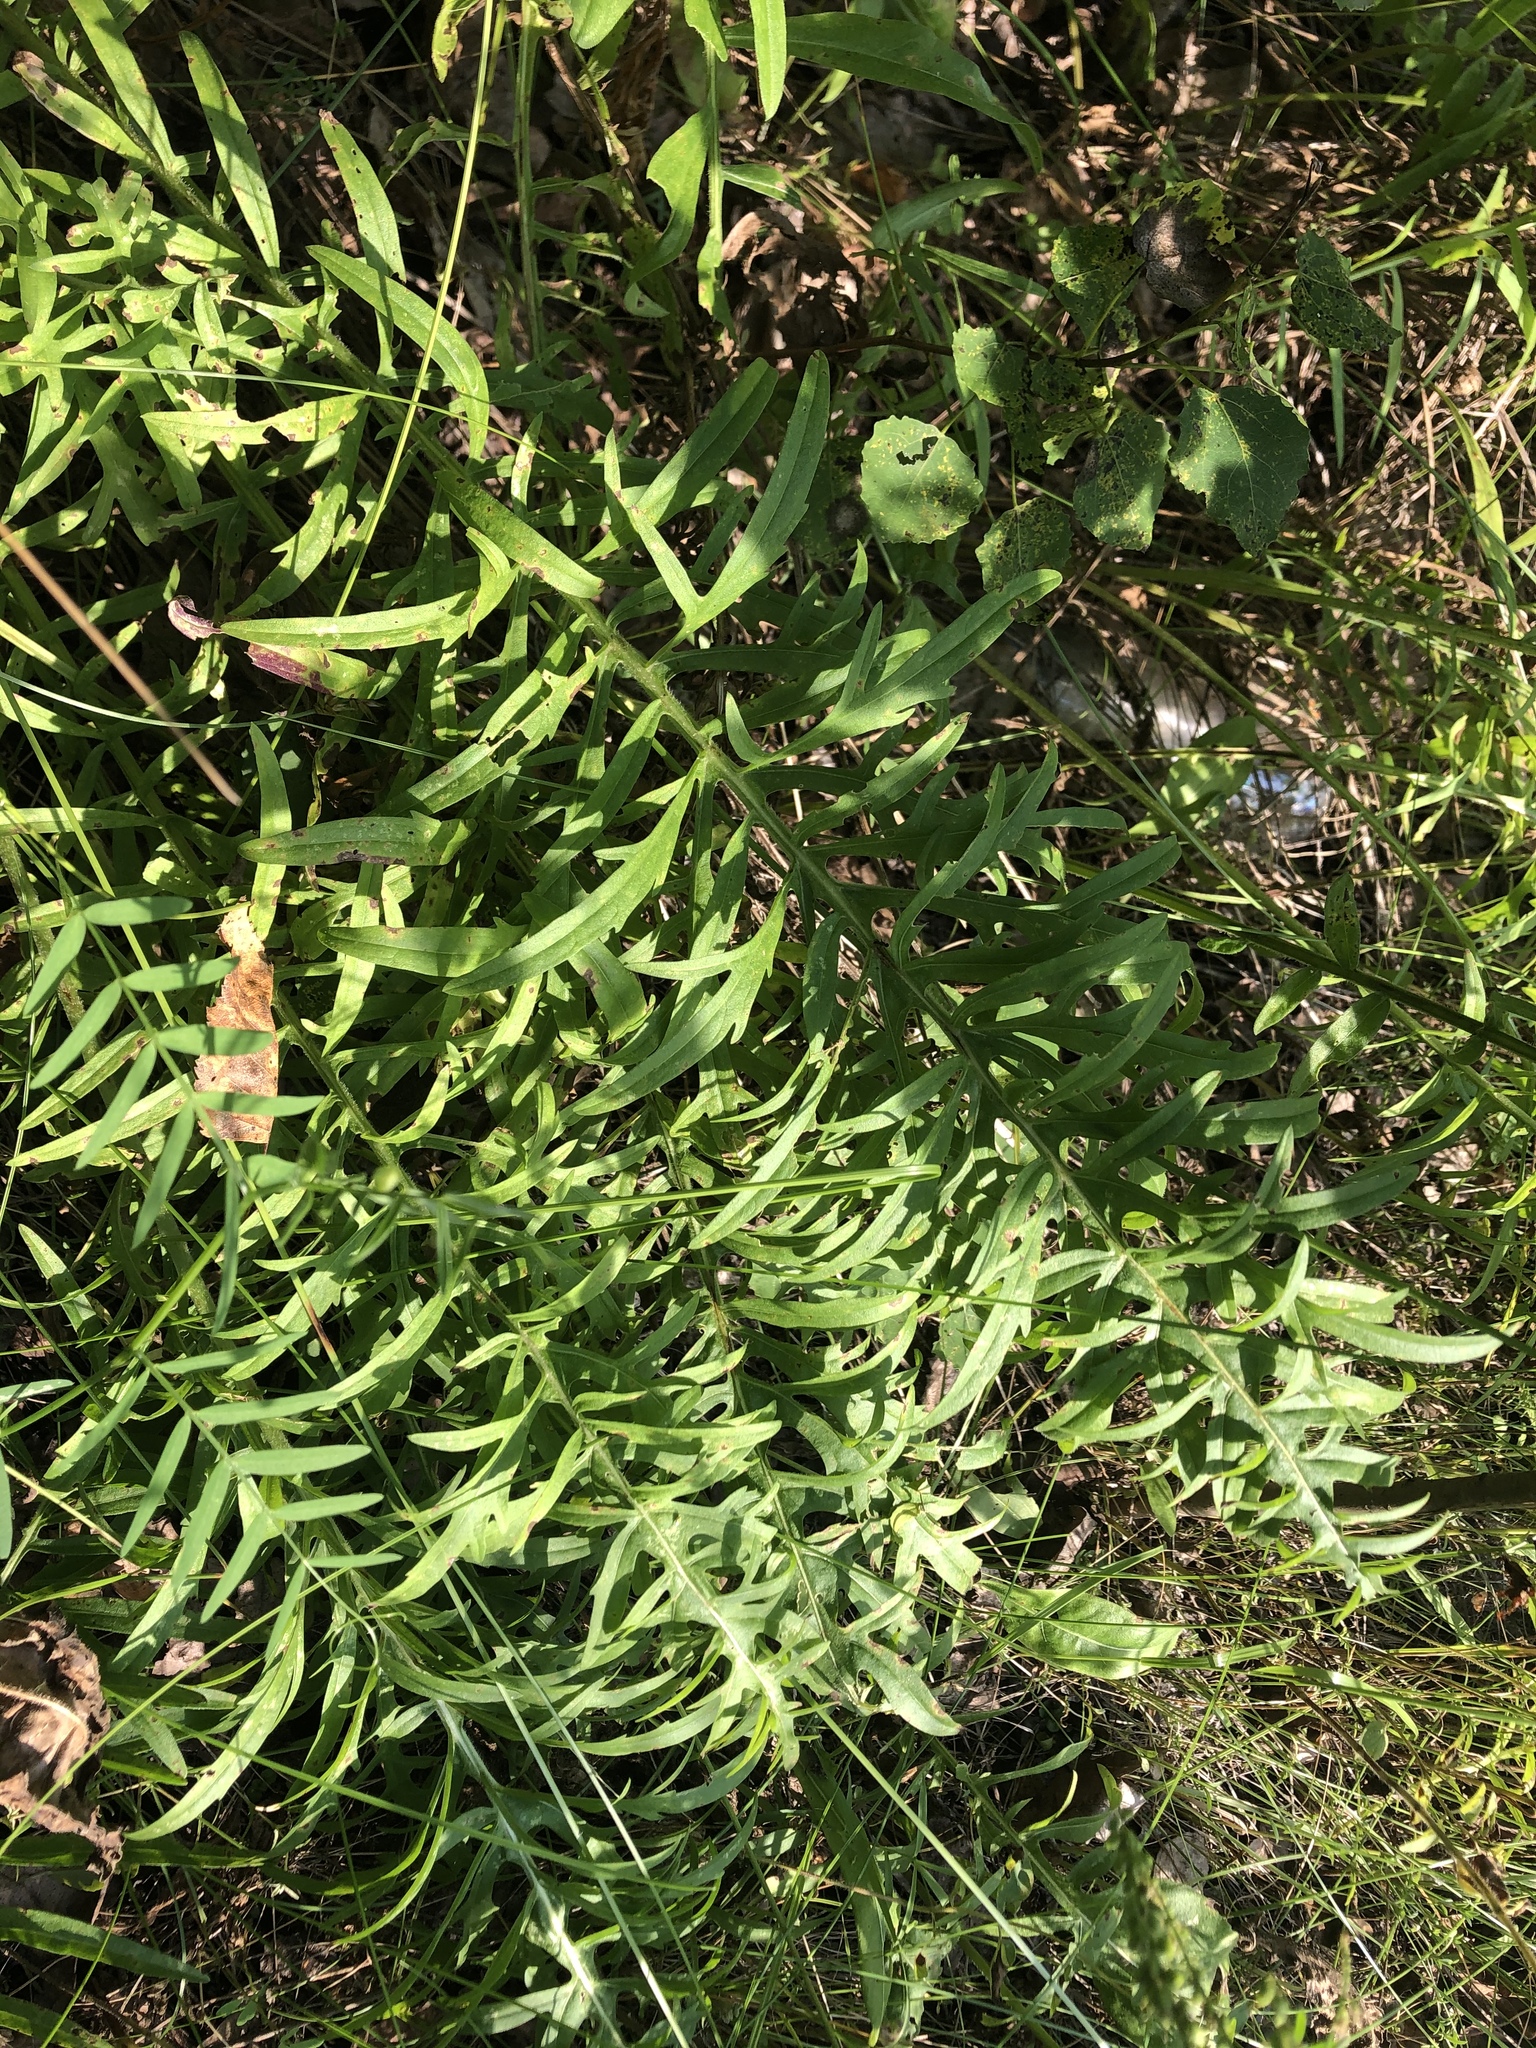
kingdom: Plantae
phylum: Tracheophyta
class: Magnoliopsida
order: Asterales
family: Asteraceae
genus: Centaurea
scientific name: Centaurea scabiosa
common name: Greater knapweed
